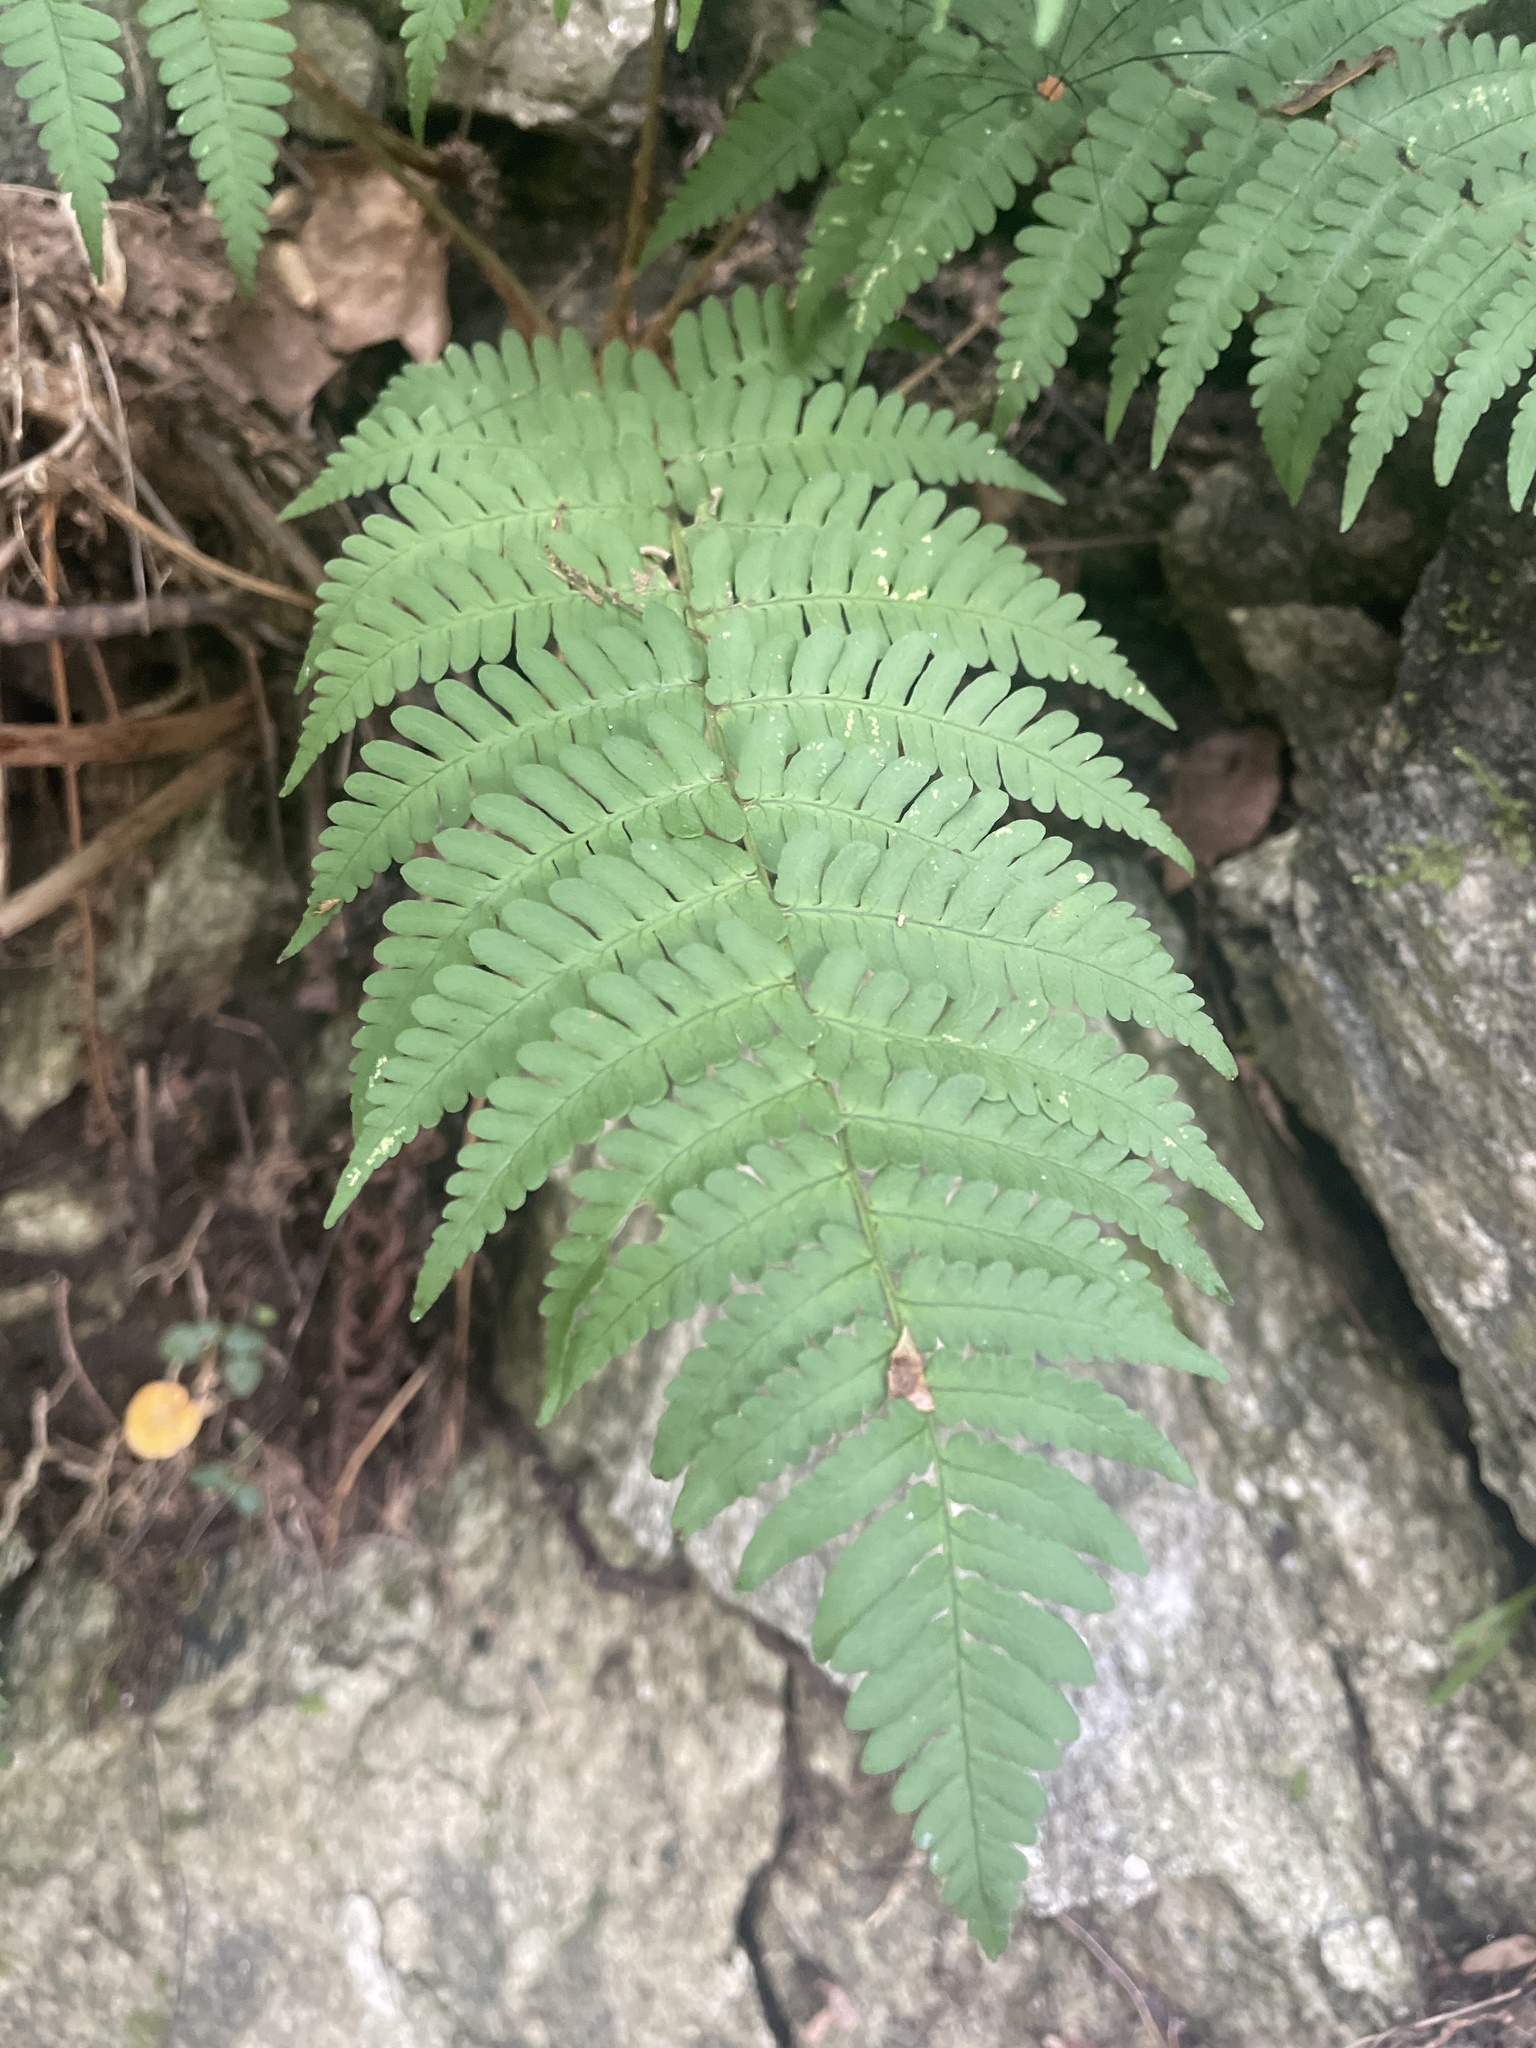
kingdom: Plantae
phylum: Tracheophyta
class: Polypodiopsida
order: Polypodiales
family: Dryopteridaceae
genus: Dryopteris
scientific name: Dryopteris marginalis
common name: Marginal wood fern
